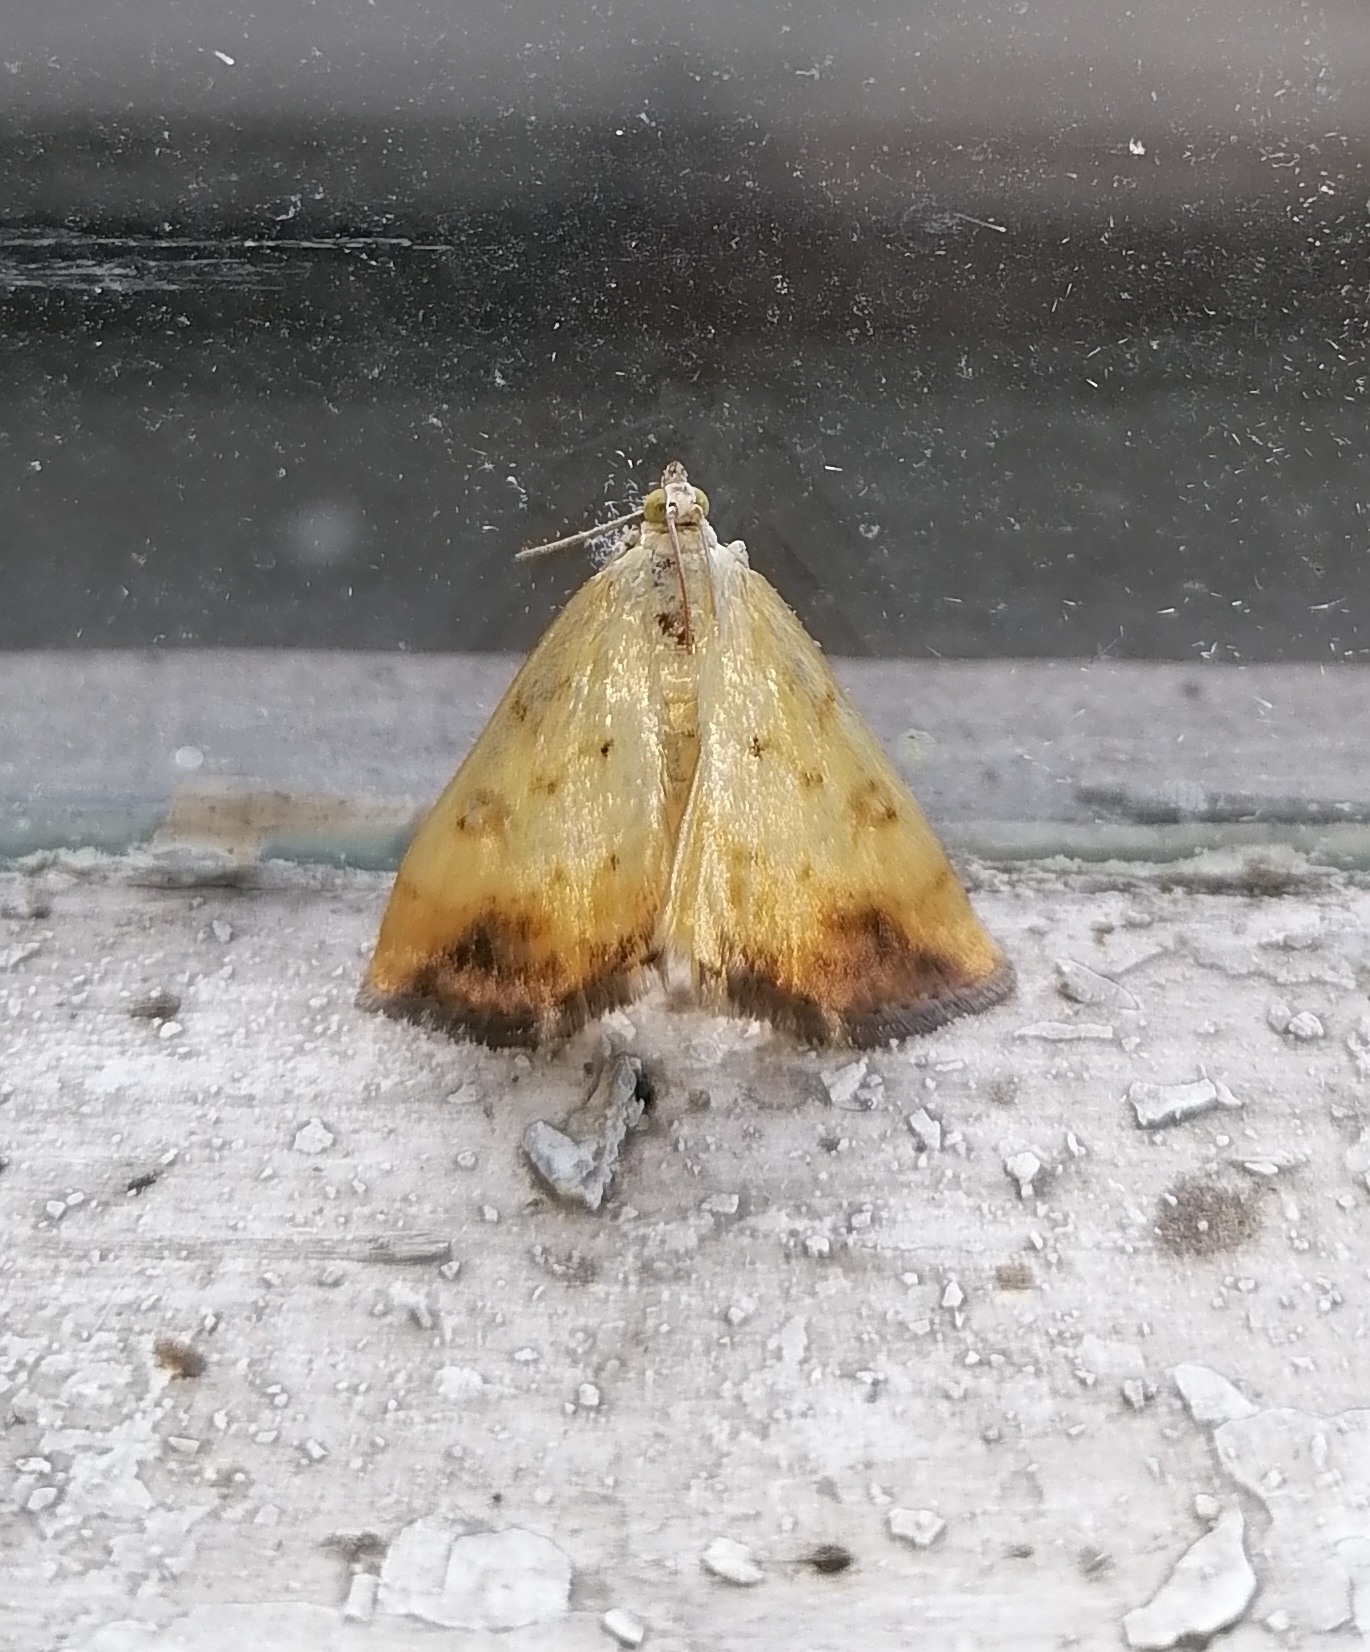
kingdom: Animalia
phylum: Arthropoda
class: Insecta
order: Lepidoptera
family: Crambidae
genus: Evergestis
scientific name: Evergestis extimalis
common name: Marbled yellow pearl
